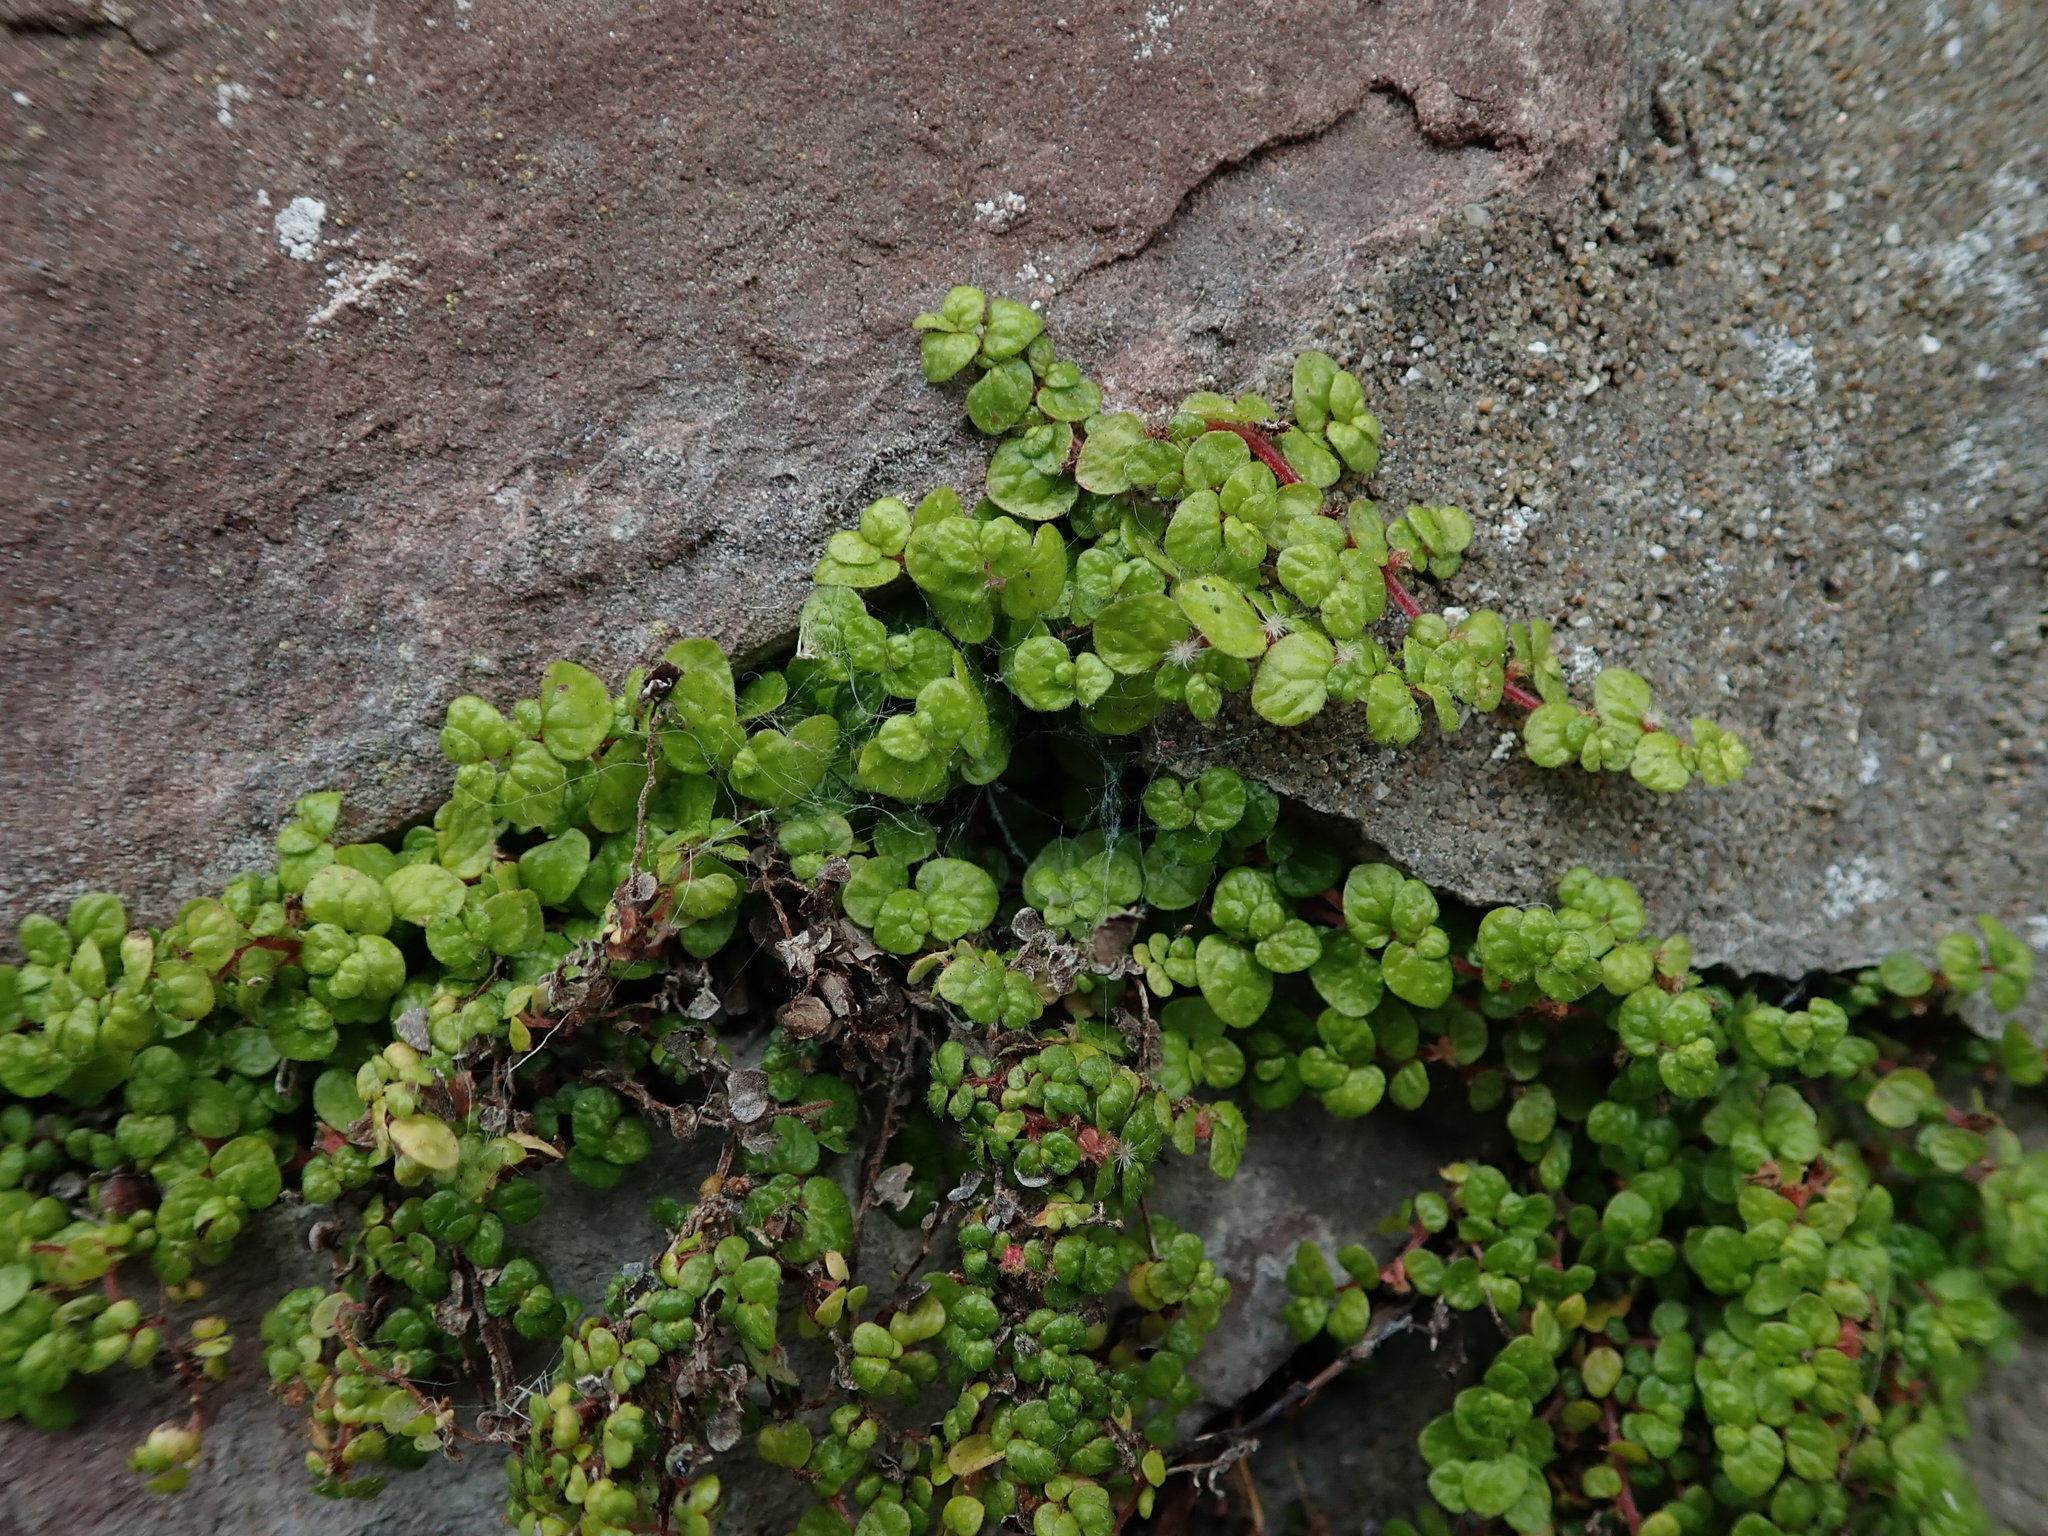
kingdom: Plantae
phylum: Tracheophyta
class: Magnoliopsida
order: Rosales
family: Urticaceae
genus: Soleirolia
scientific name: Soleirolia soleirolii
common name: Mind-your-own-business
